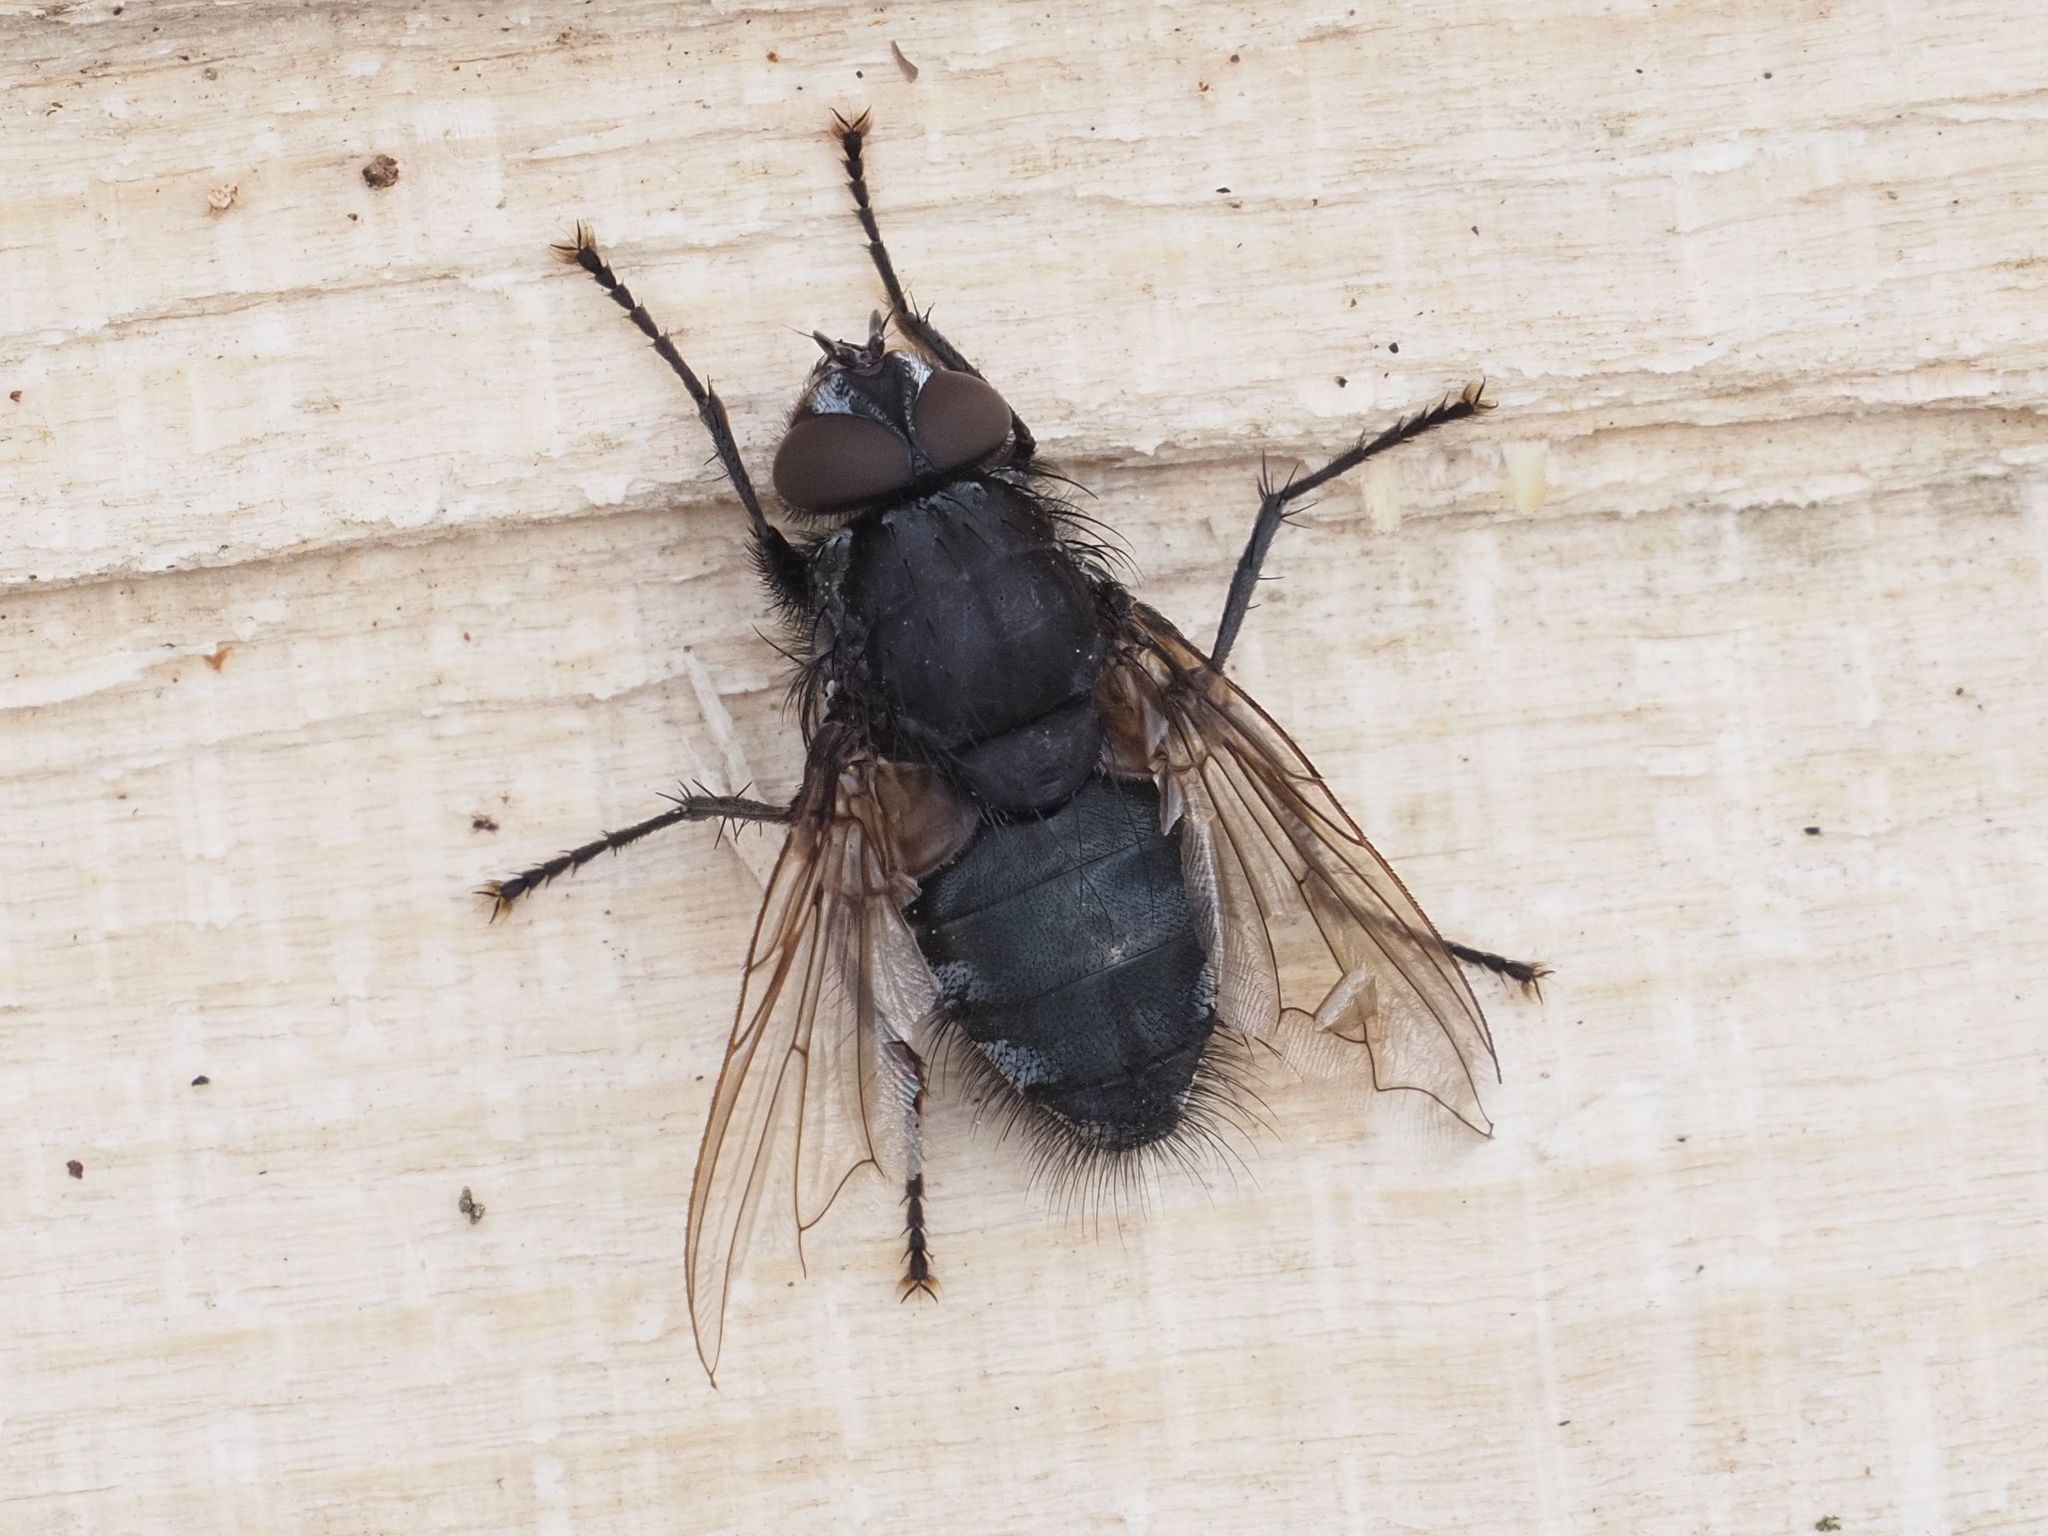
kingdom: Animalia
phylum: Arthropoda
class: Insecta
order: Diptera
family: Polleniidae
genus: Pollenia
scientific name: Pollenia vagabunda
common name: Vagabund cluster fly
